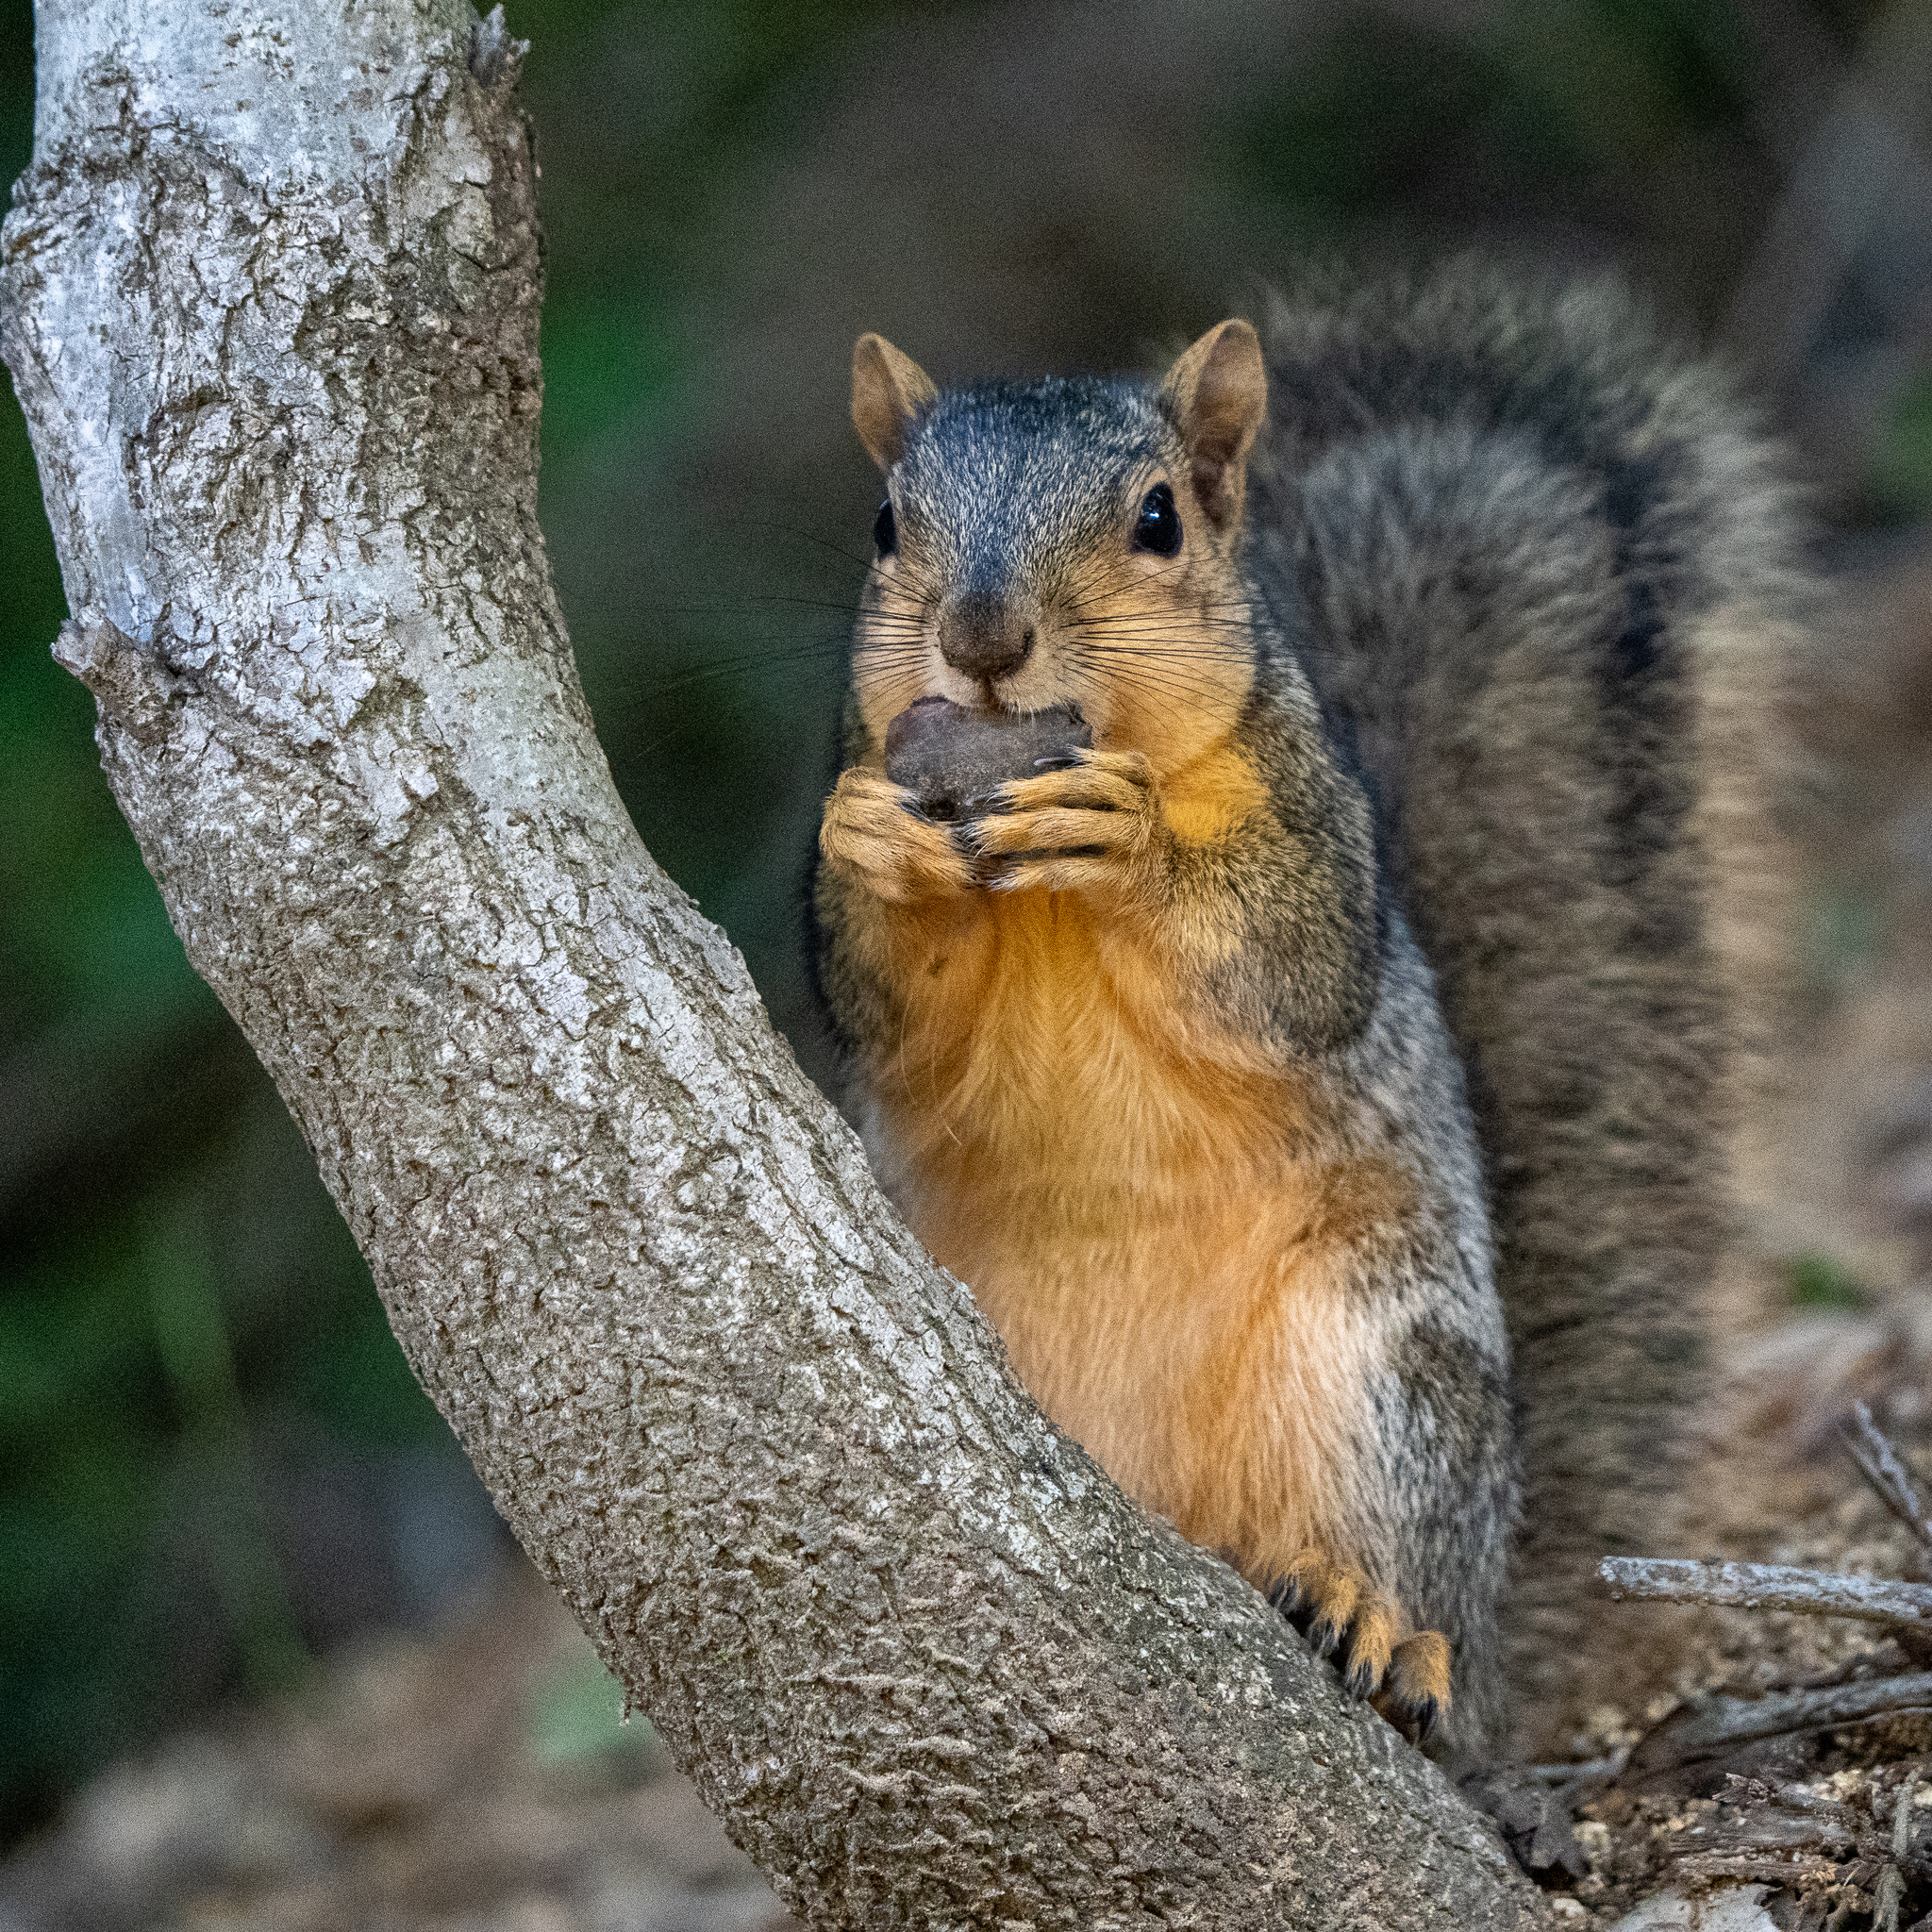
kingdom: Animalia
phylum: Chordata
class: Mammalia
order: Rodentia
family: Sciuridae
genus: Sciurus
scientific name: Sciurus niger
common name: Fox squirrel
